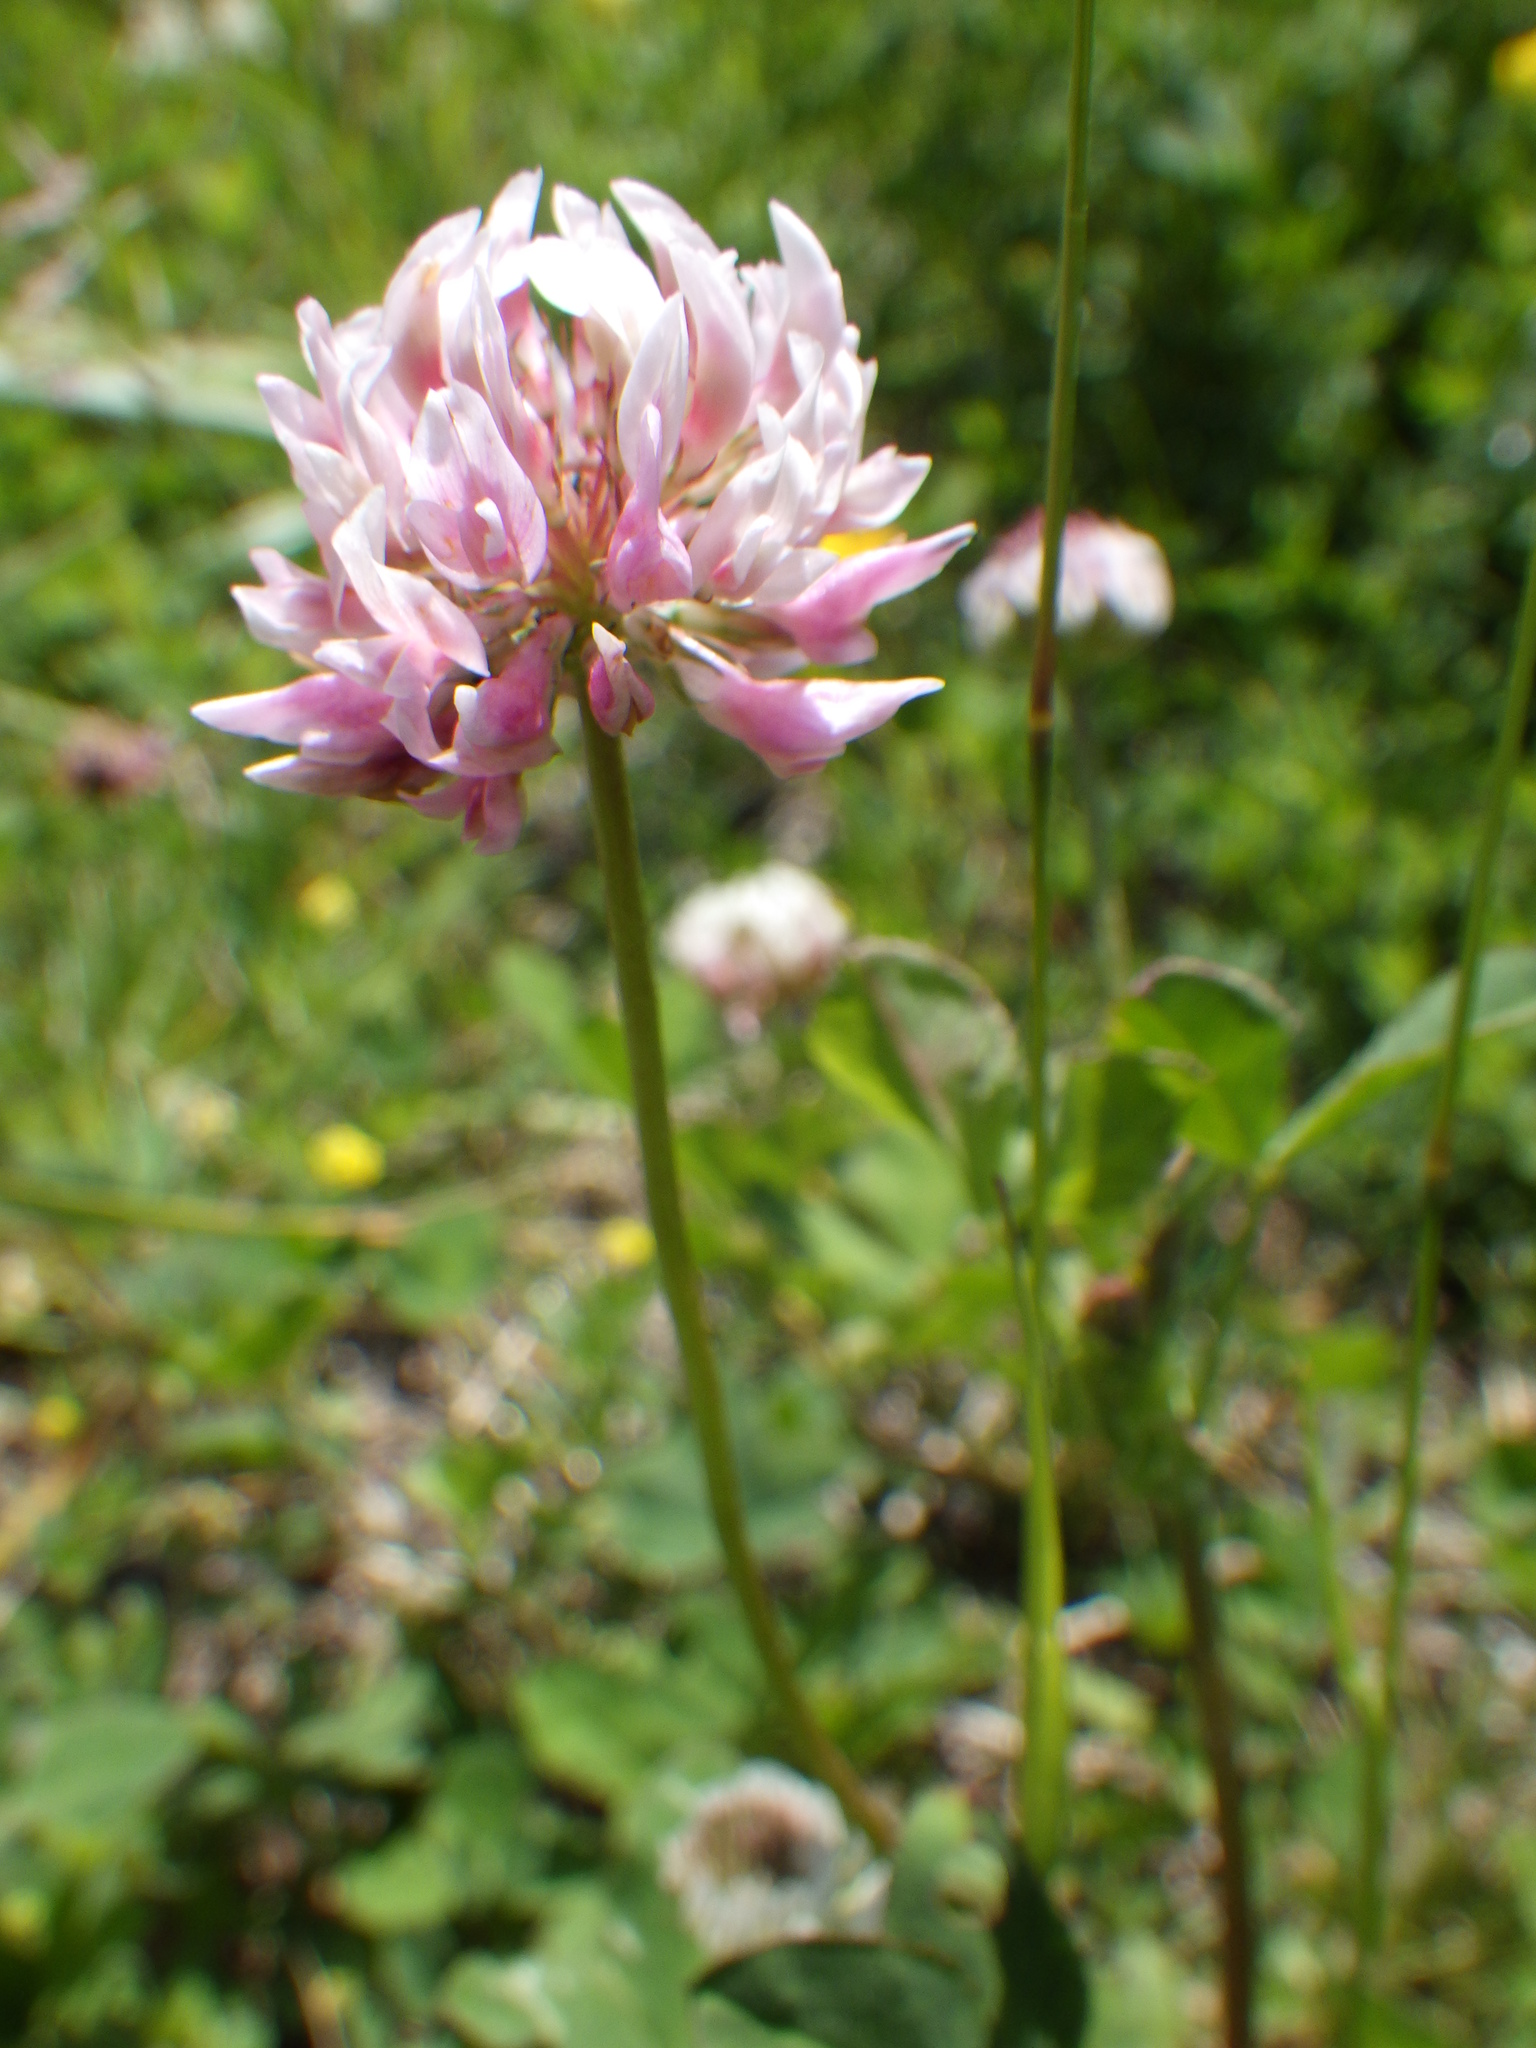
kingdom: Plantae
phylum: Tracheophyta
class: Magnoliopsida
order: Fabales
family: Fabaceae
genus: Trifolium
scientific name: Trifolium hybridum
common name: Alsike clover
